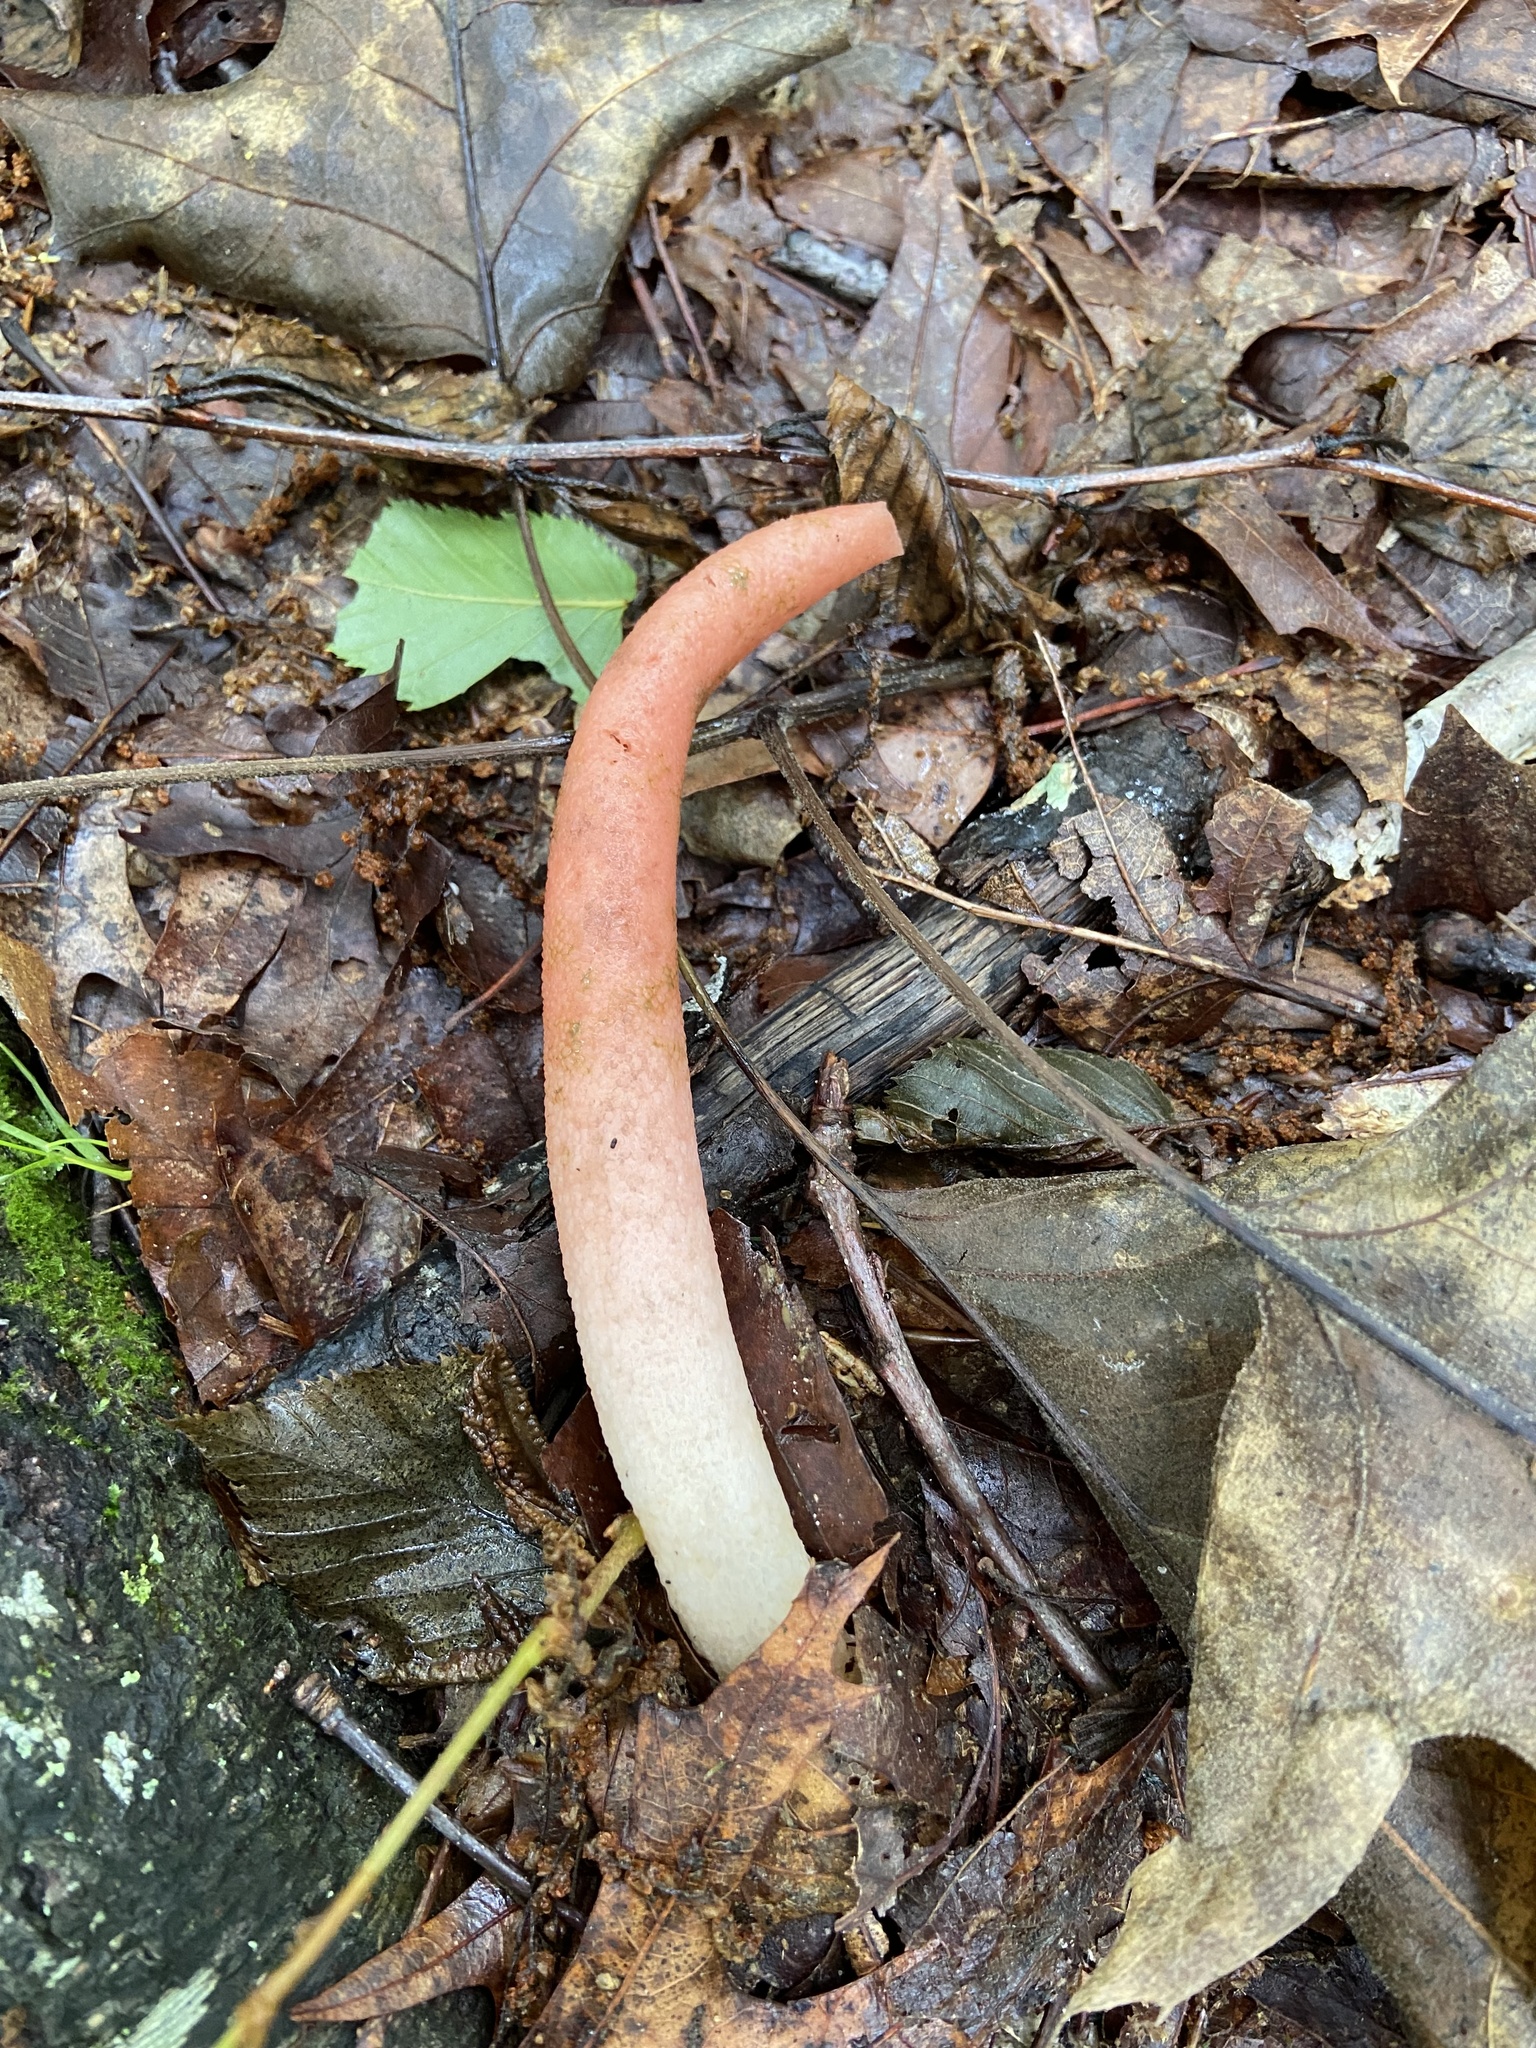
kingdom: Fungi
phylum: Basidiomycota
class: Agaricomycetes
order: Phallales
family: Phallaceae
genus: Mutinus
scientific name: Mutinus elegans
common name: Devil's dipstick
